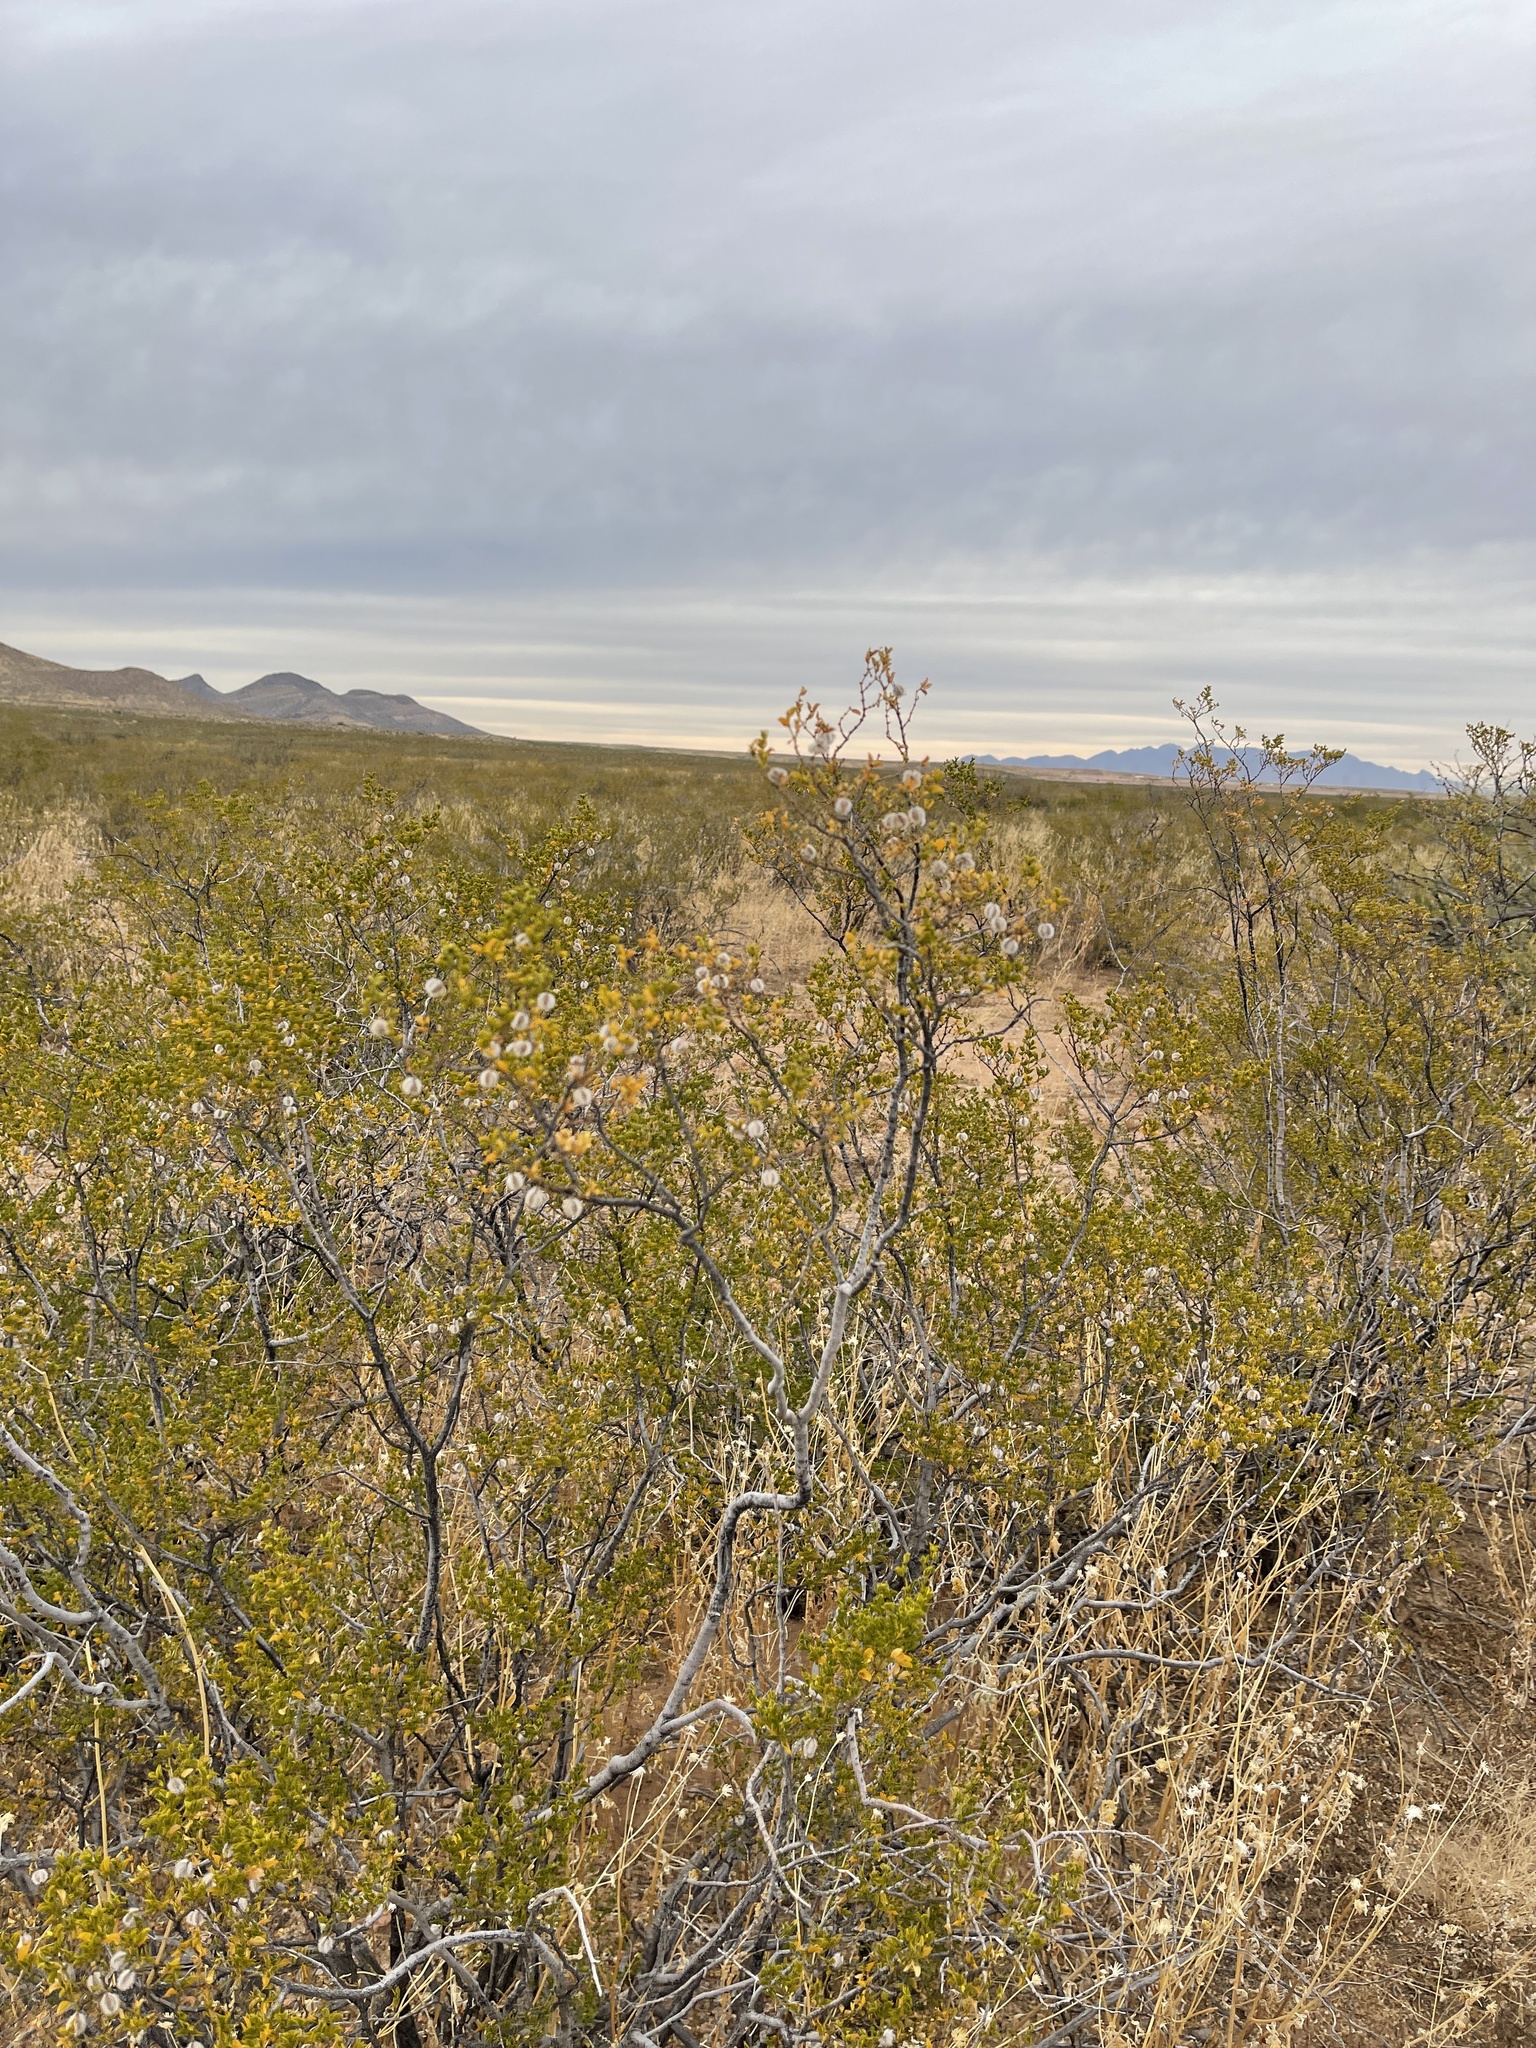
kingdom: Plantae
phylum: Tracheophyta
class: Magnoliopsida
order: Zygophyllales
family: Zygophyllaceae
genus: Larrea
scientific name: Larrea tridentata
